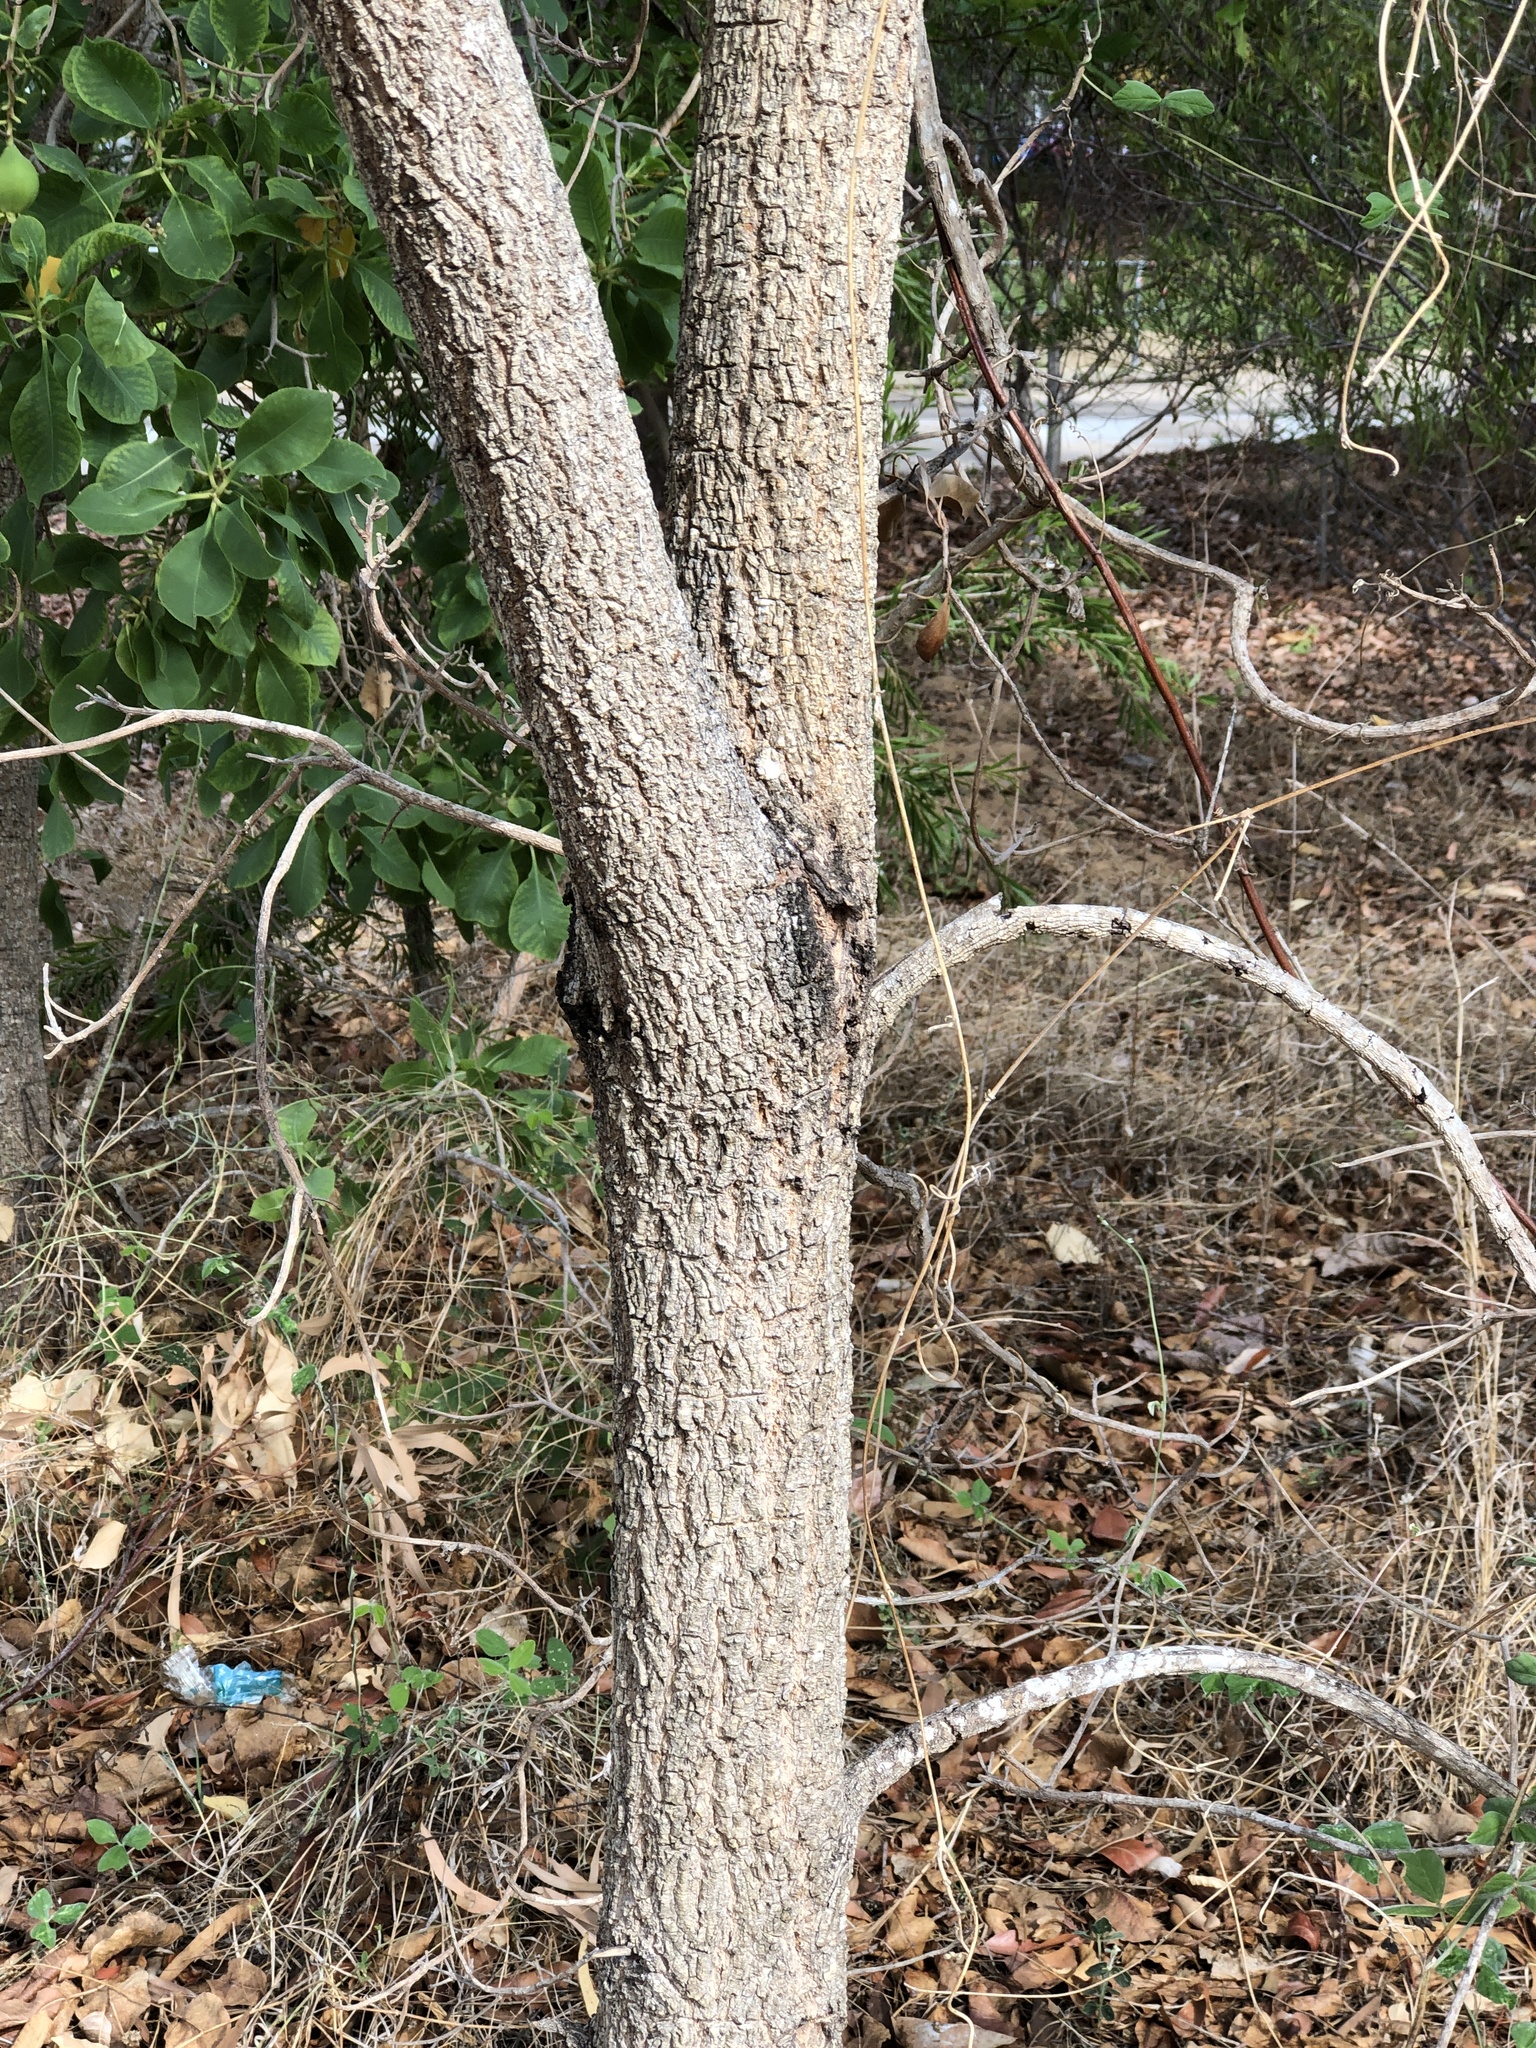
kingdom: Plantae
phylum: Tracheophyta
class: Magnoliopsida
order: Ericales
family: Lecythidaceae
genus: Planchonia
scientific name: Planchonia careya
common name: Cockatoo-apple
